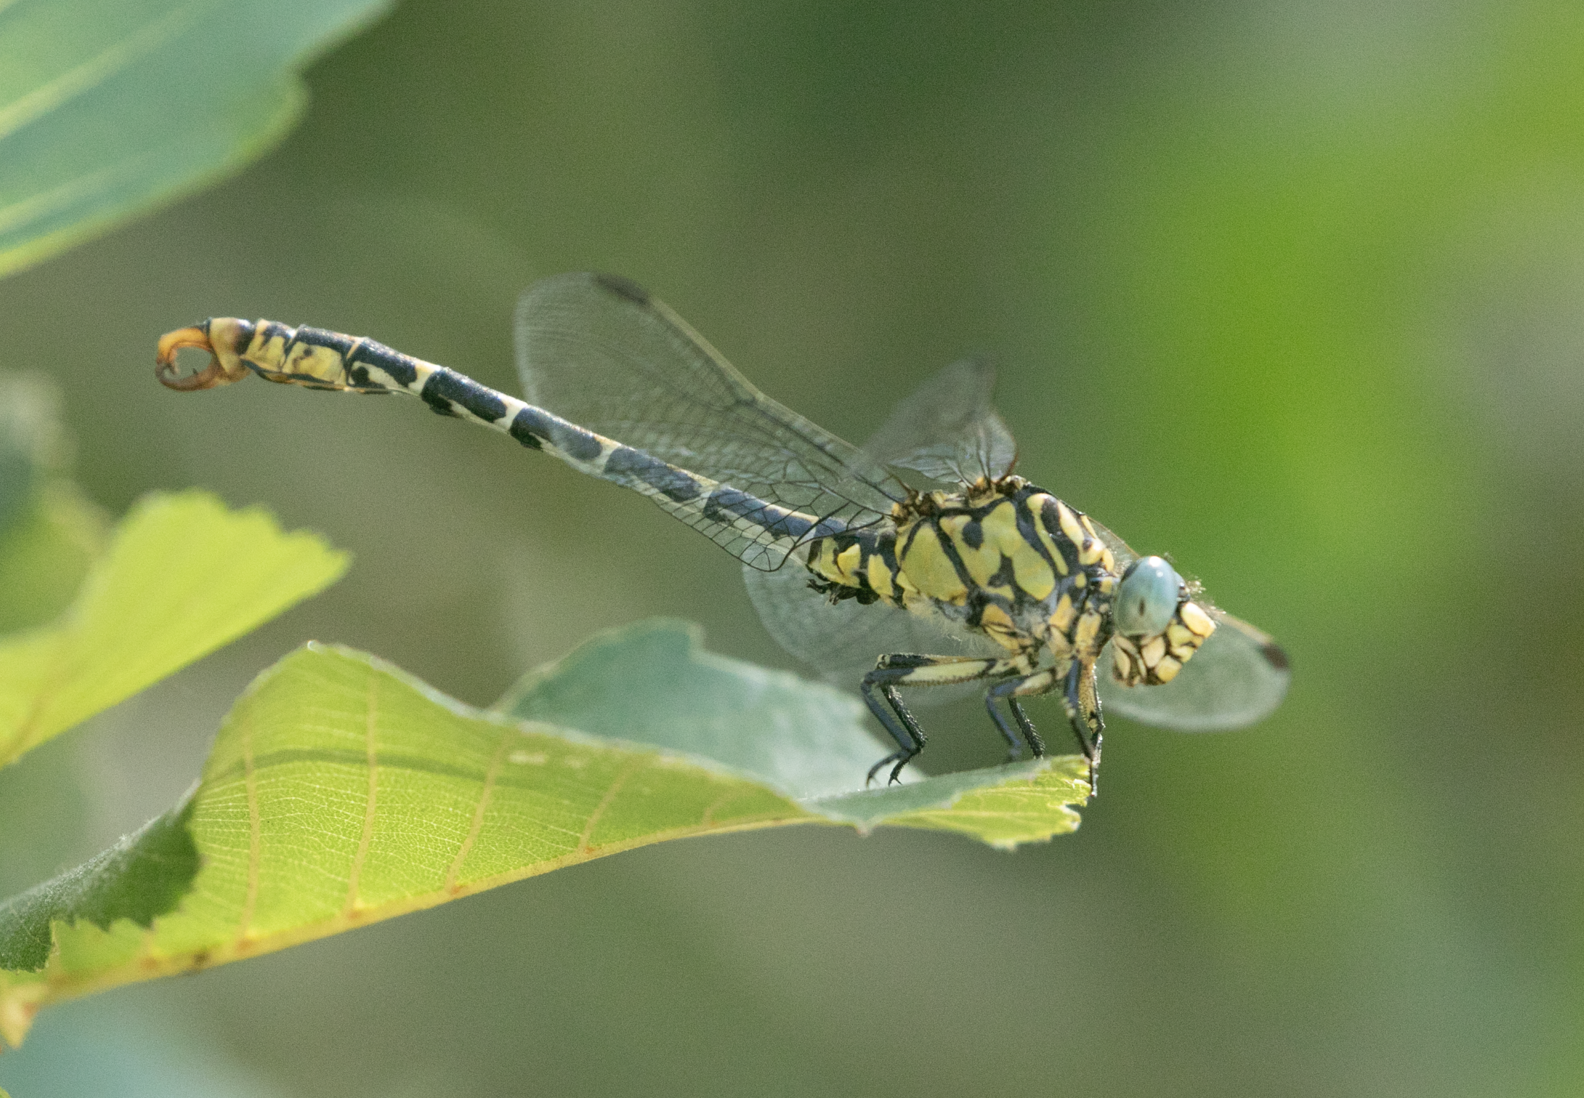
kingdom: Animalia
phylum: Arthropoda
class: Insecta
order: Odonata
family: Gomphidae
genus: Onychogomphus
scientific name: Onychogomphus forcipatus
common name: Small pincertail
